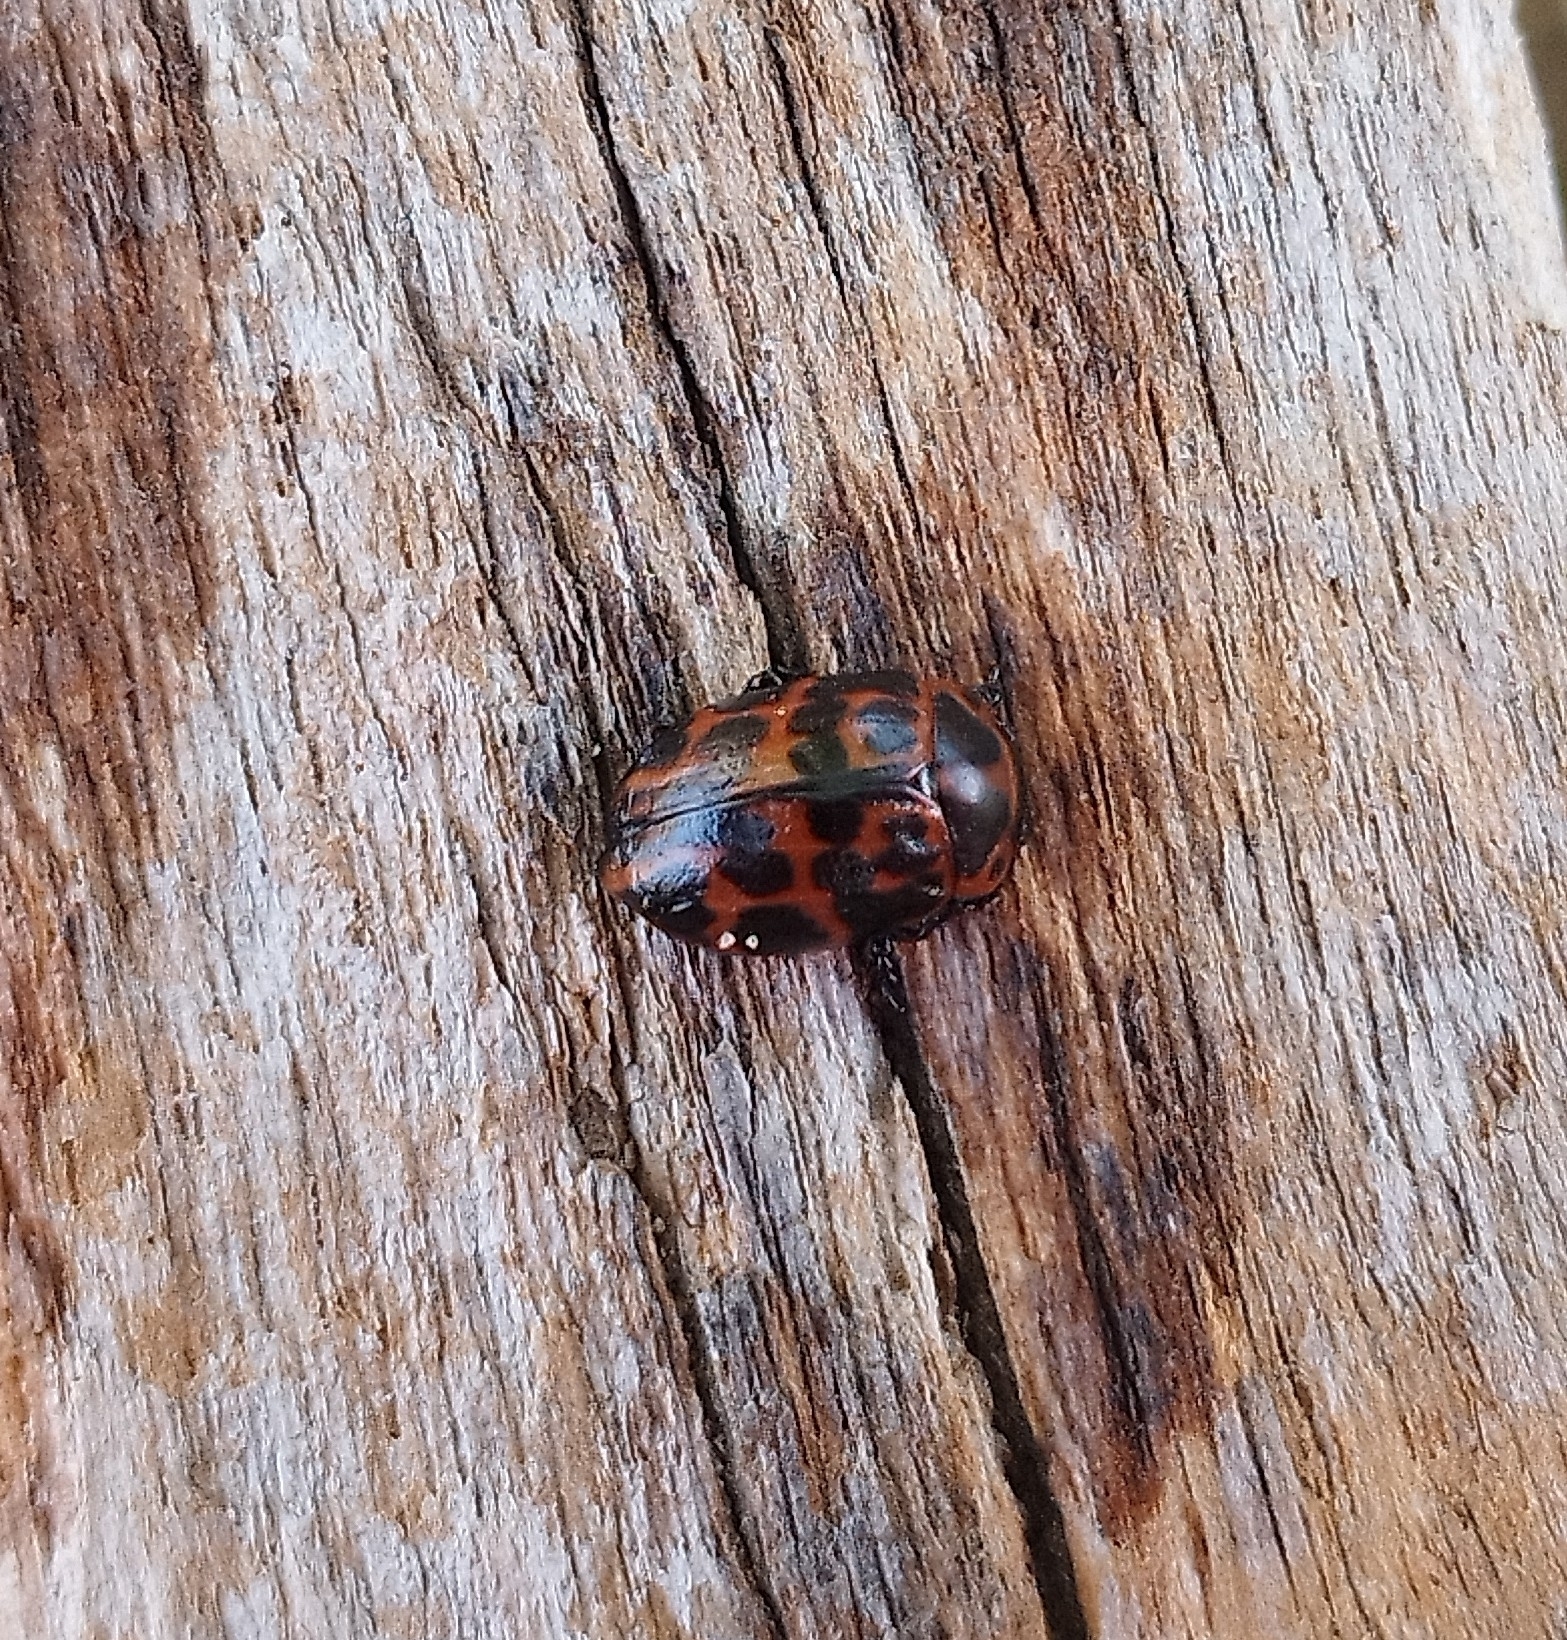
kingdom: Animalia
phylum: Arthropoda
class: Insecta
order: Coleoptera
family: Chrysomelidae
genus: Platyphora
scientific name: Platyphora
